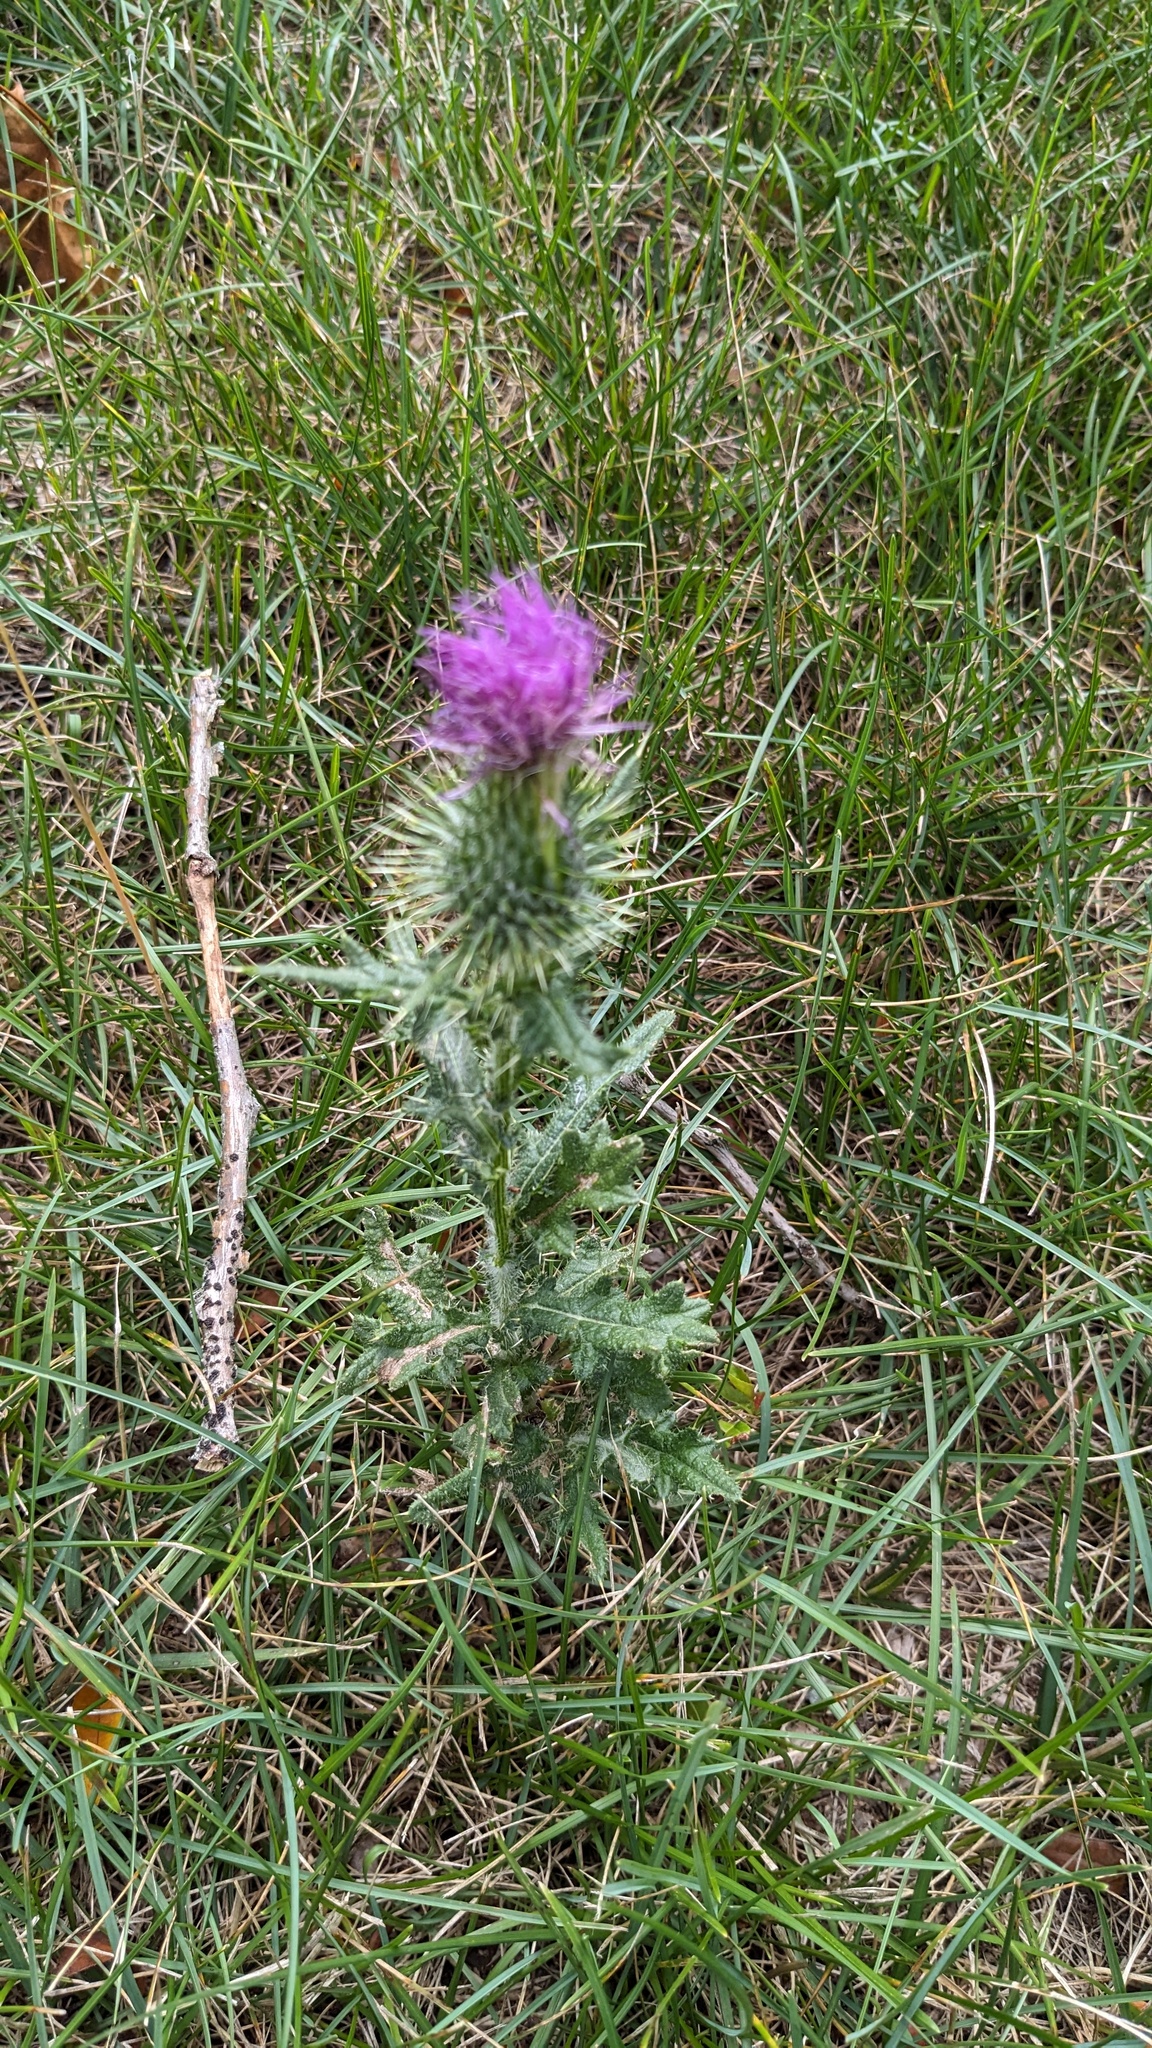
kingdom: Plantae
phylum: Tracheophyta
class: Magnoliopsida
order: Asterales
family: Asteraceae
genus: Cirsium
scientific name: Cirsium vulgare
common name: Bull thistle
